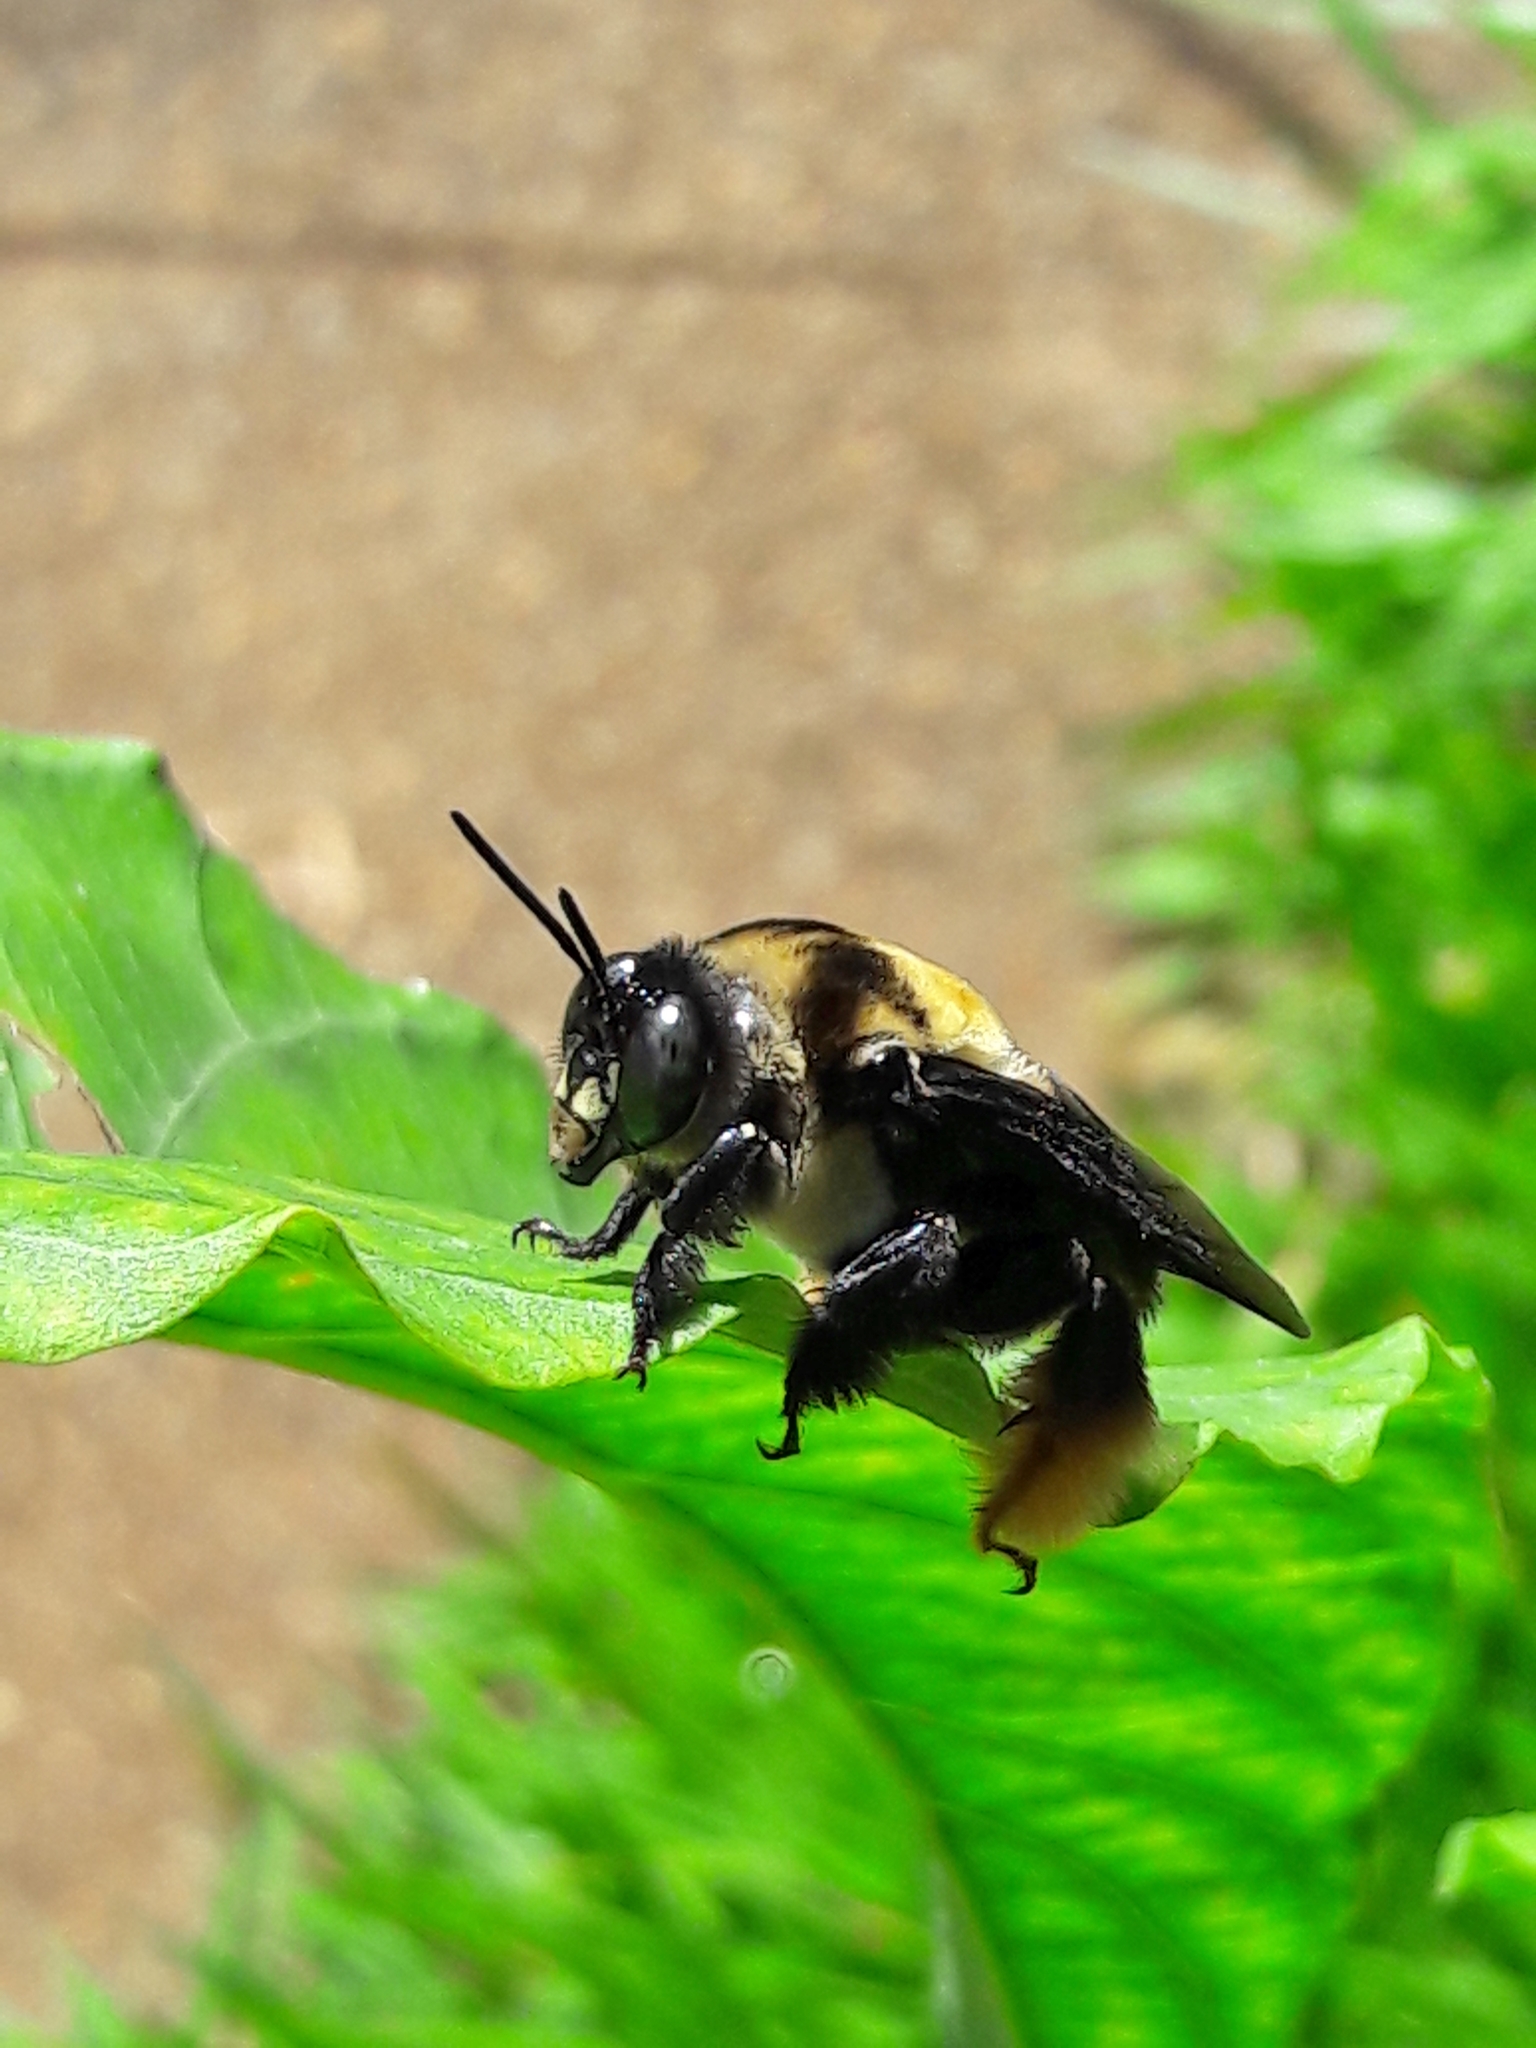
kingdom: Animalia
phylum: Arthropoda
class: Insecta
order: Hymenoptera
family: Apidae
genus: Centris
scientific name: Centris mocsaryi
